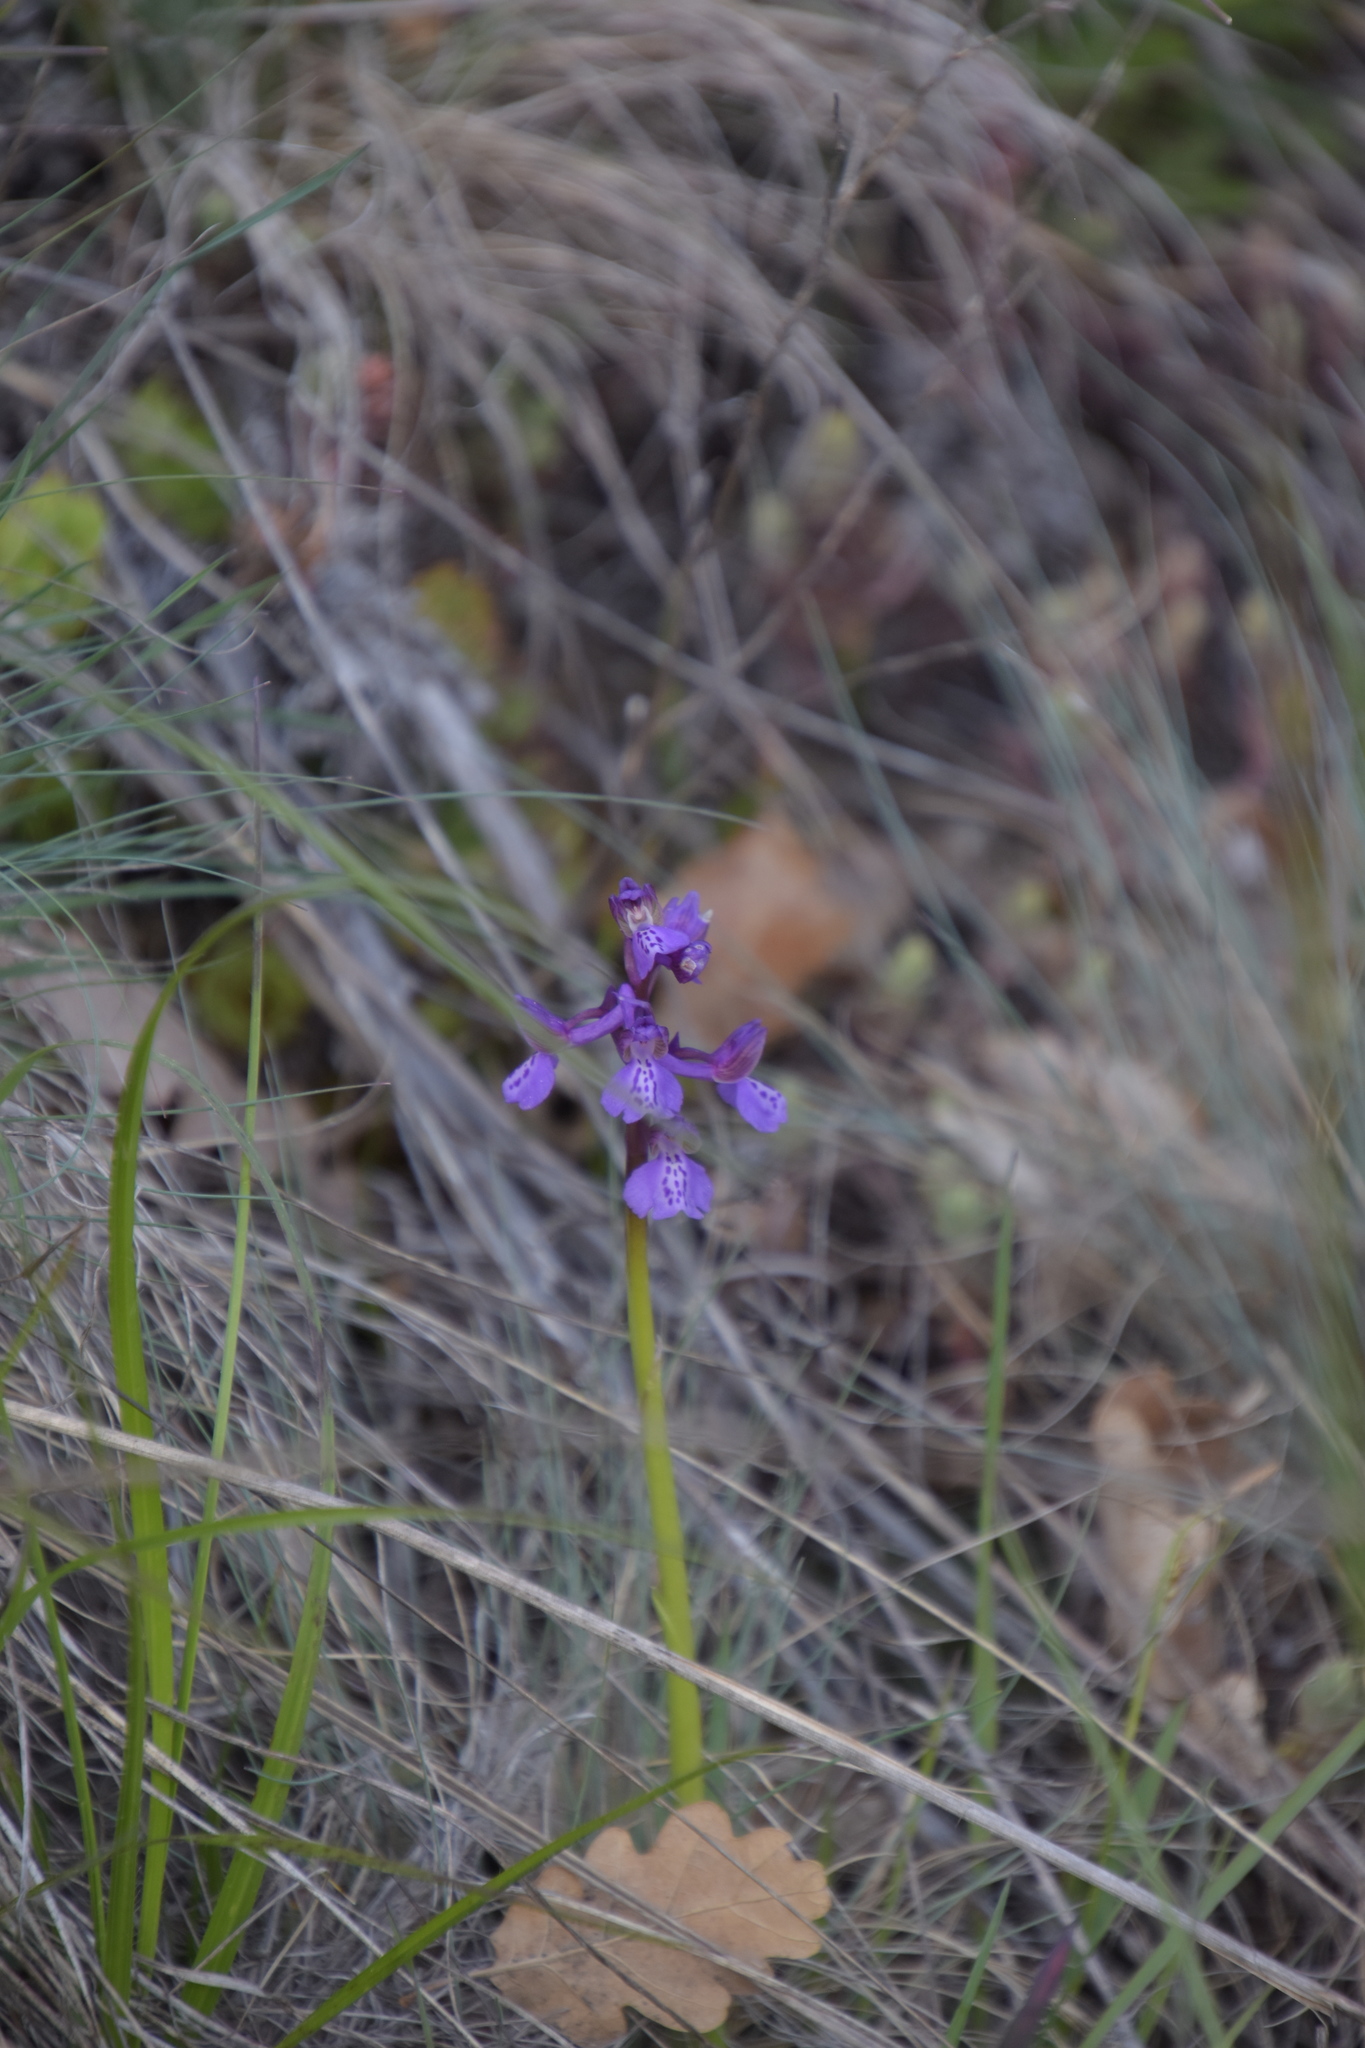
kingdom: Plantae
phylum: Tracheophyta
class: Liliopsida
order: Asparagales
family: Orchidaceae
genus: Anacamptis
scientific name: Anacamptis morio
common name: Green-winged orchid
